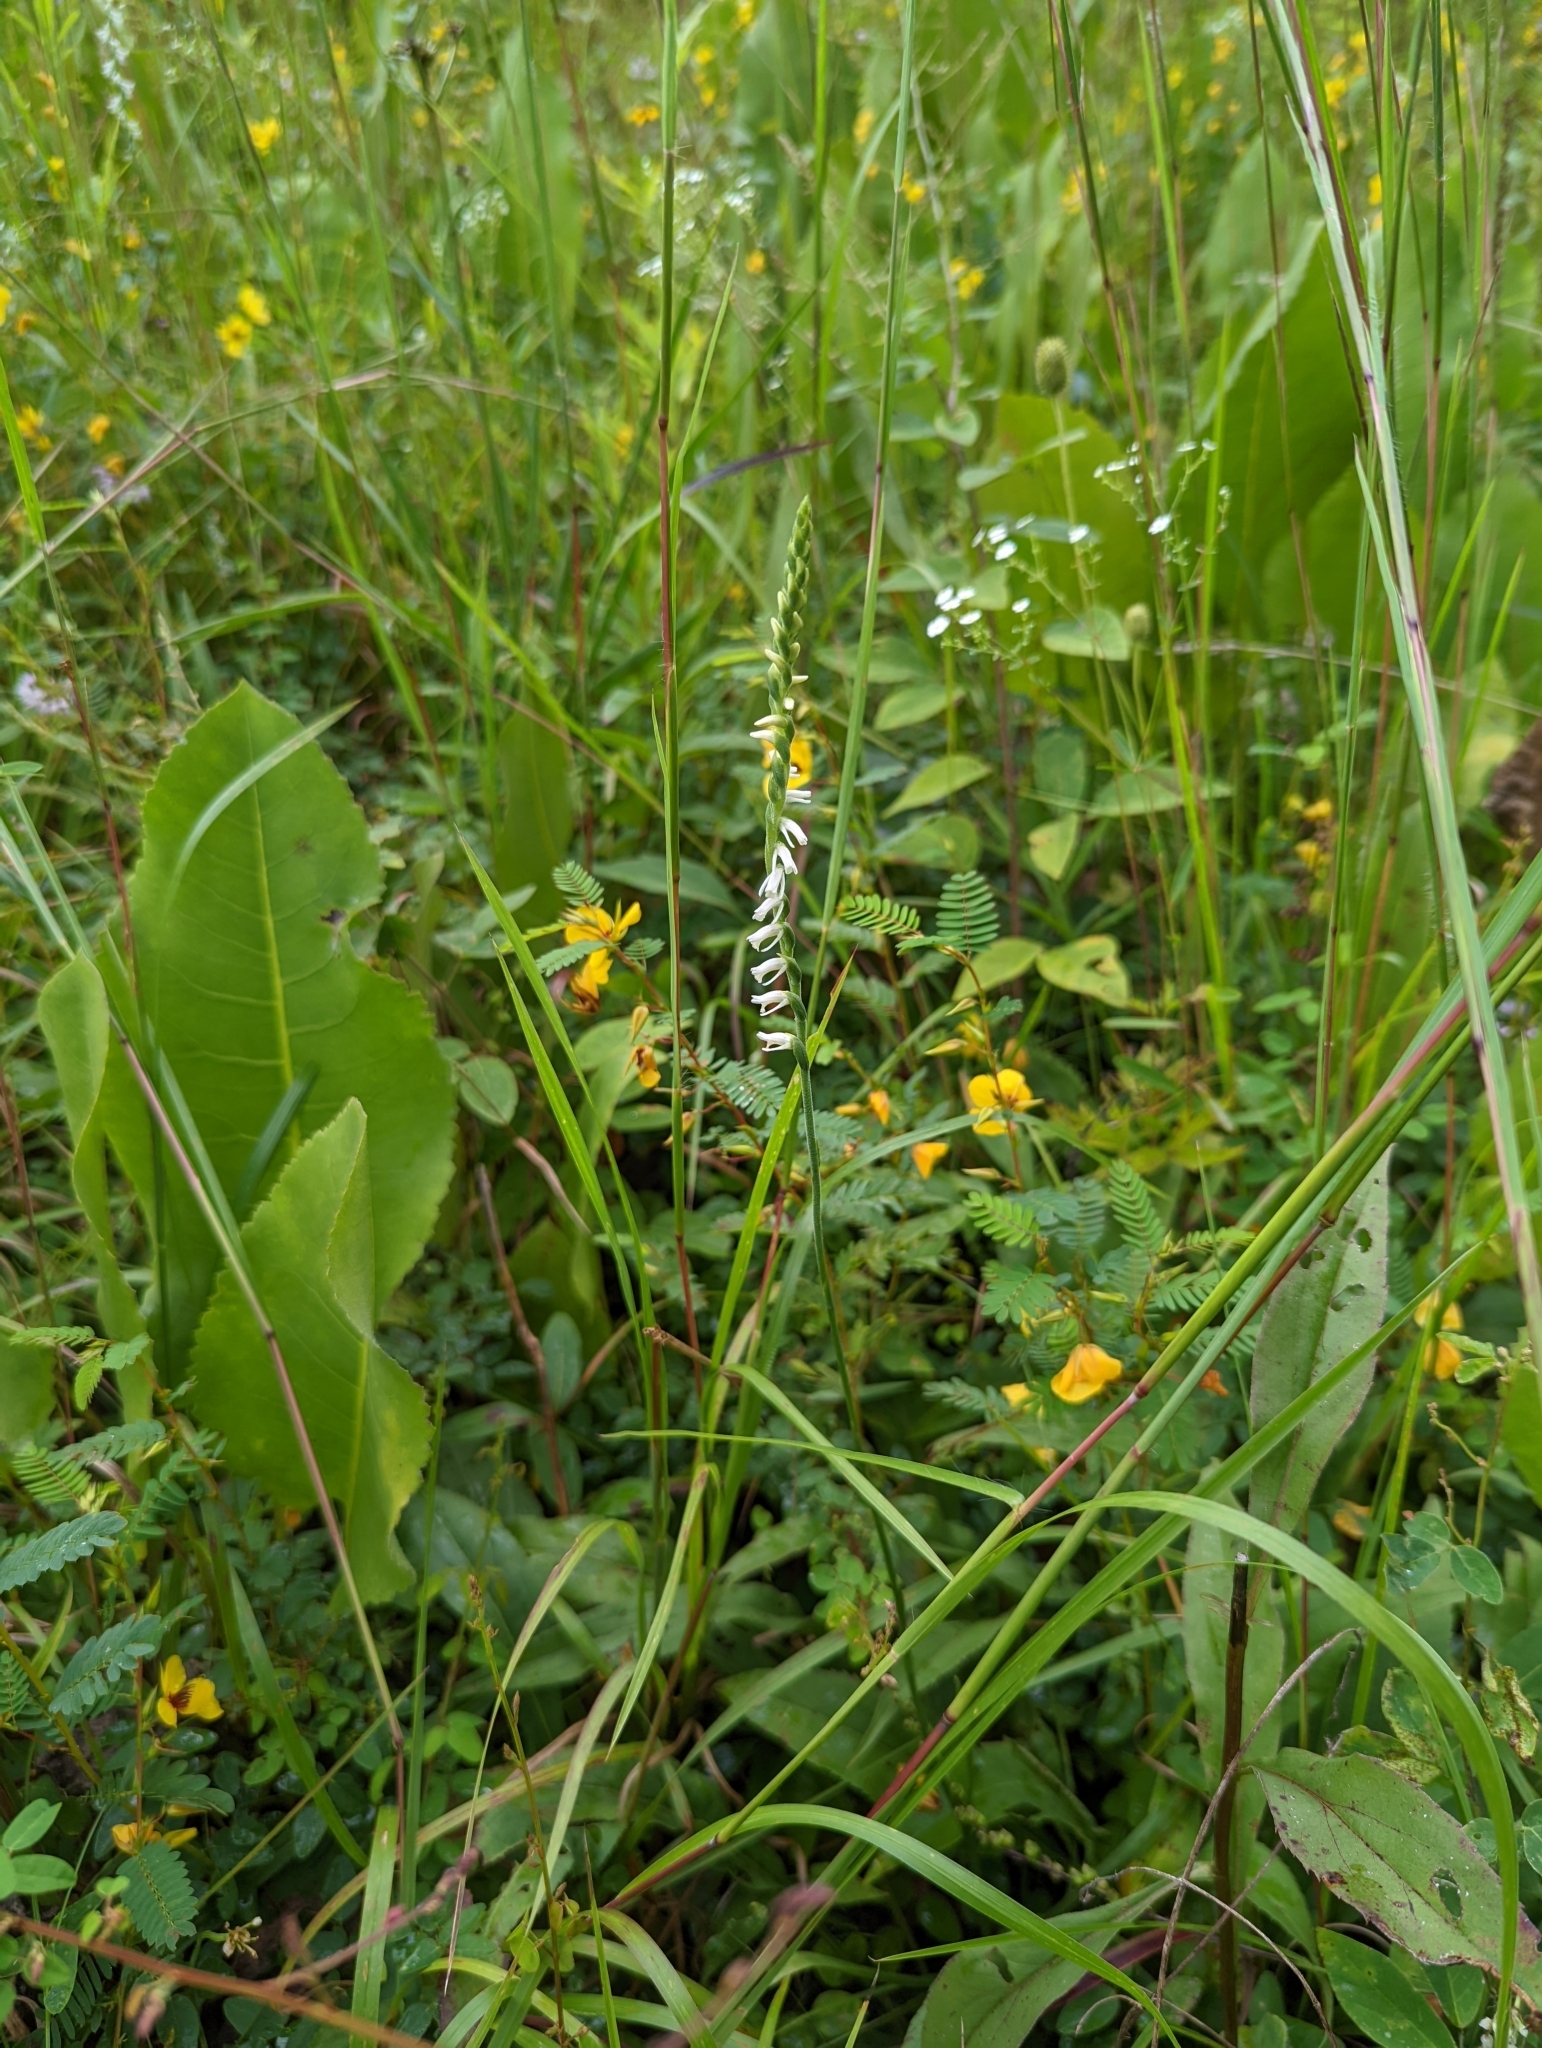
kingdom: Plantae
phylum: Tracheophyta
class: Liliopsida
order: Asparagales
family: Orchidaceae
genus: Spiranthes
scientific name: Spiranthes vernalis
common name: Spring ladies'-tresses
